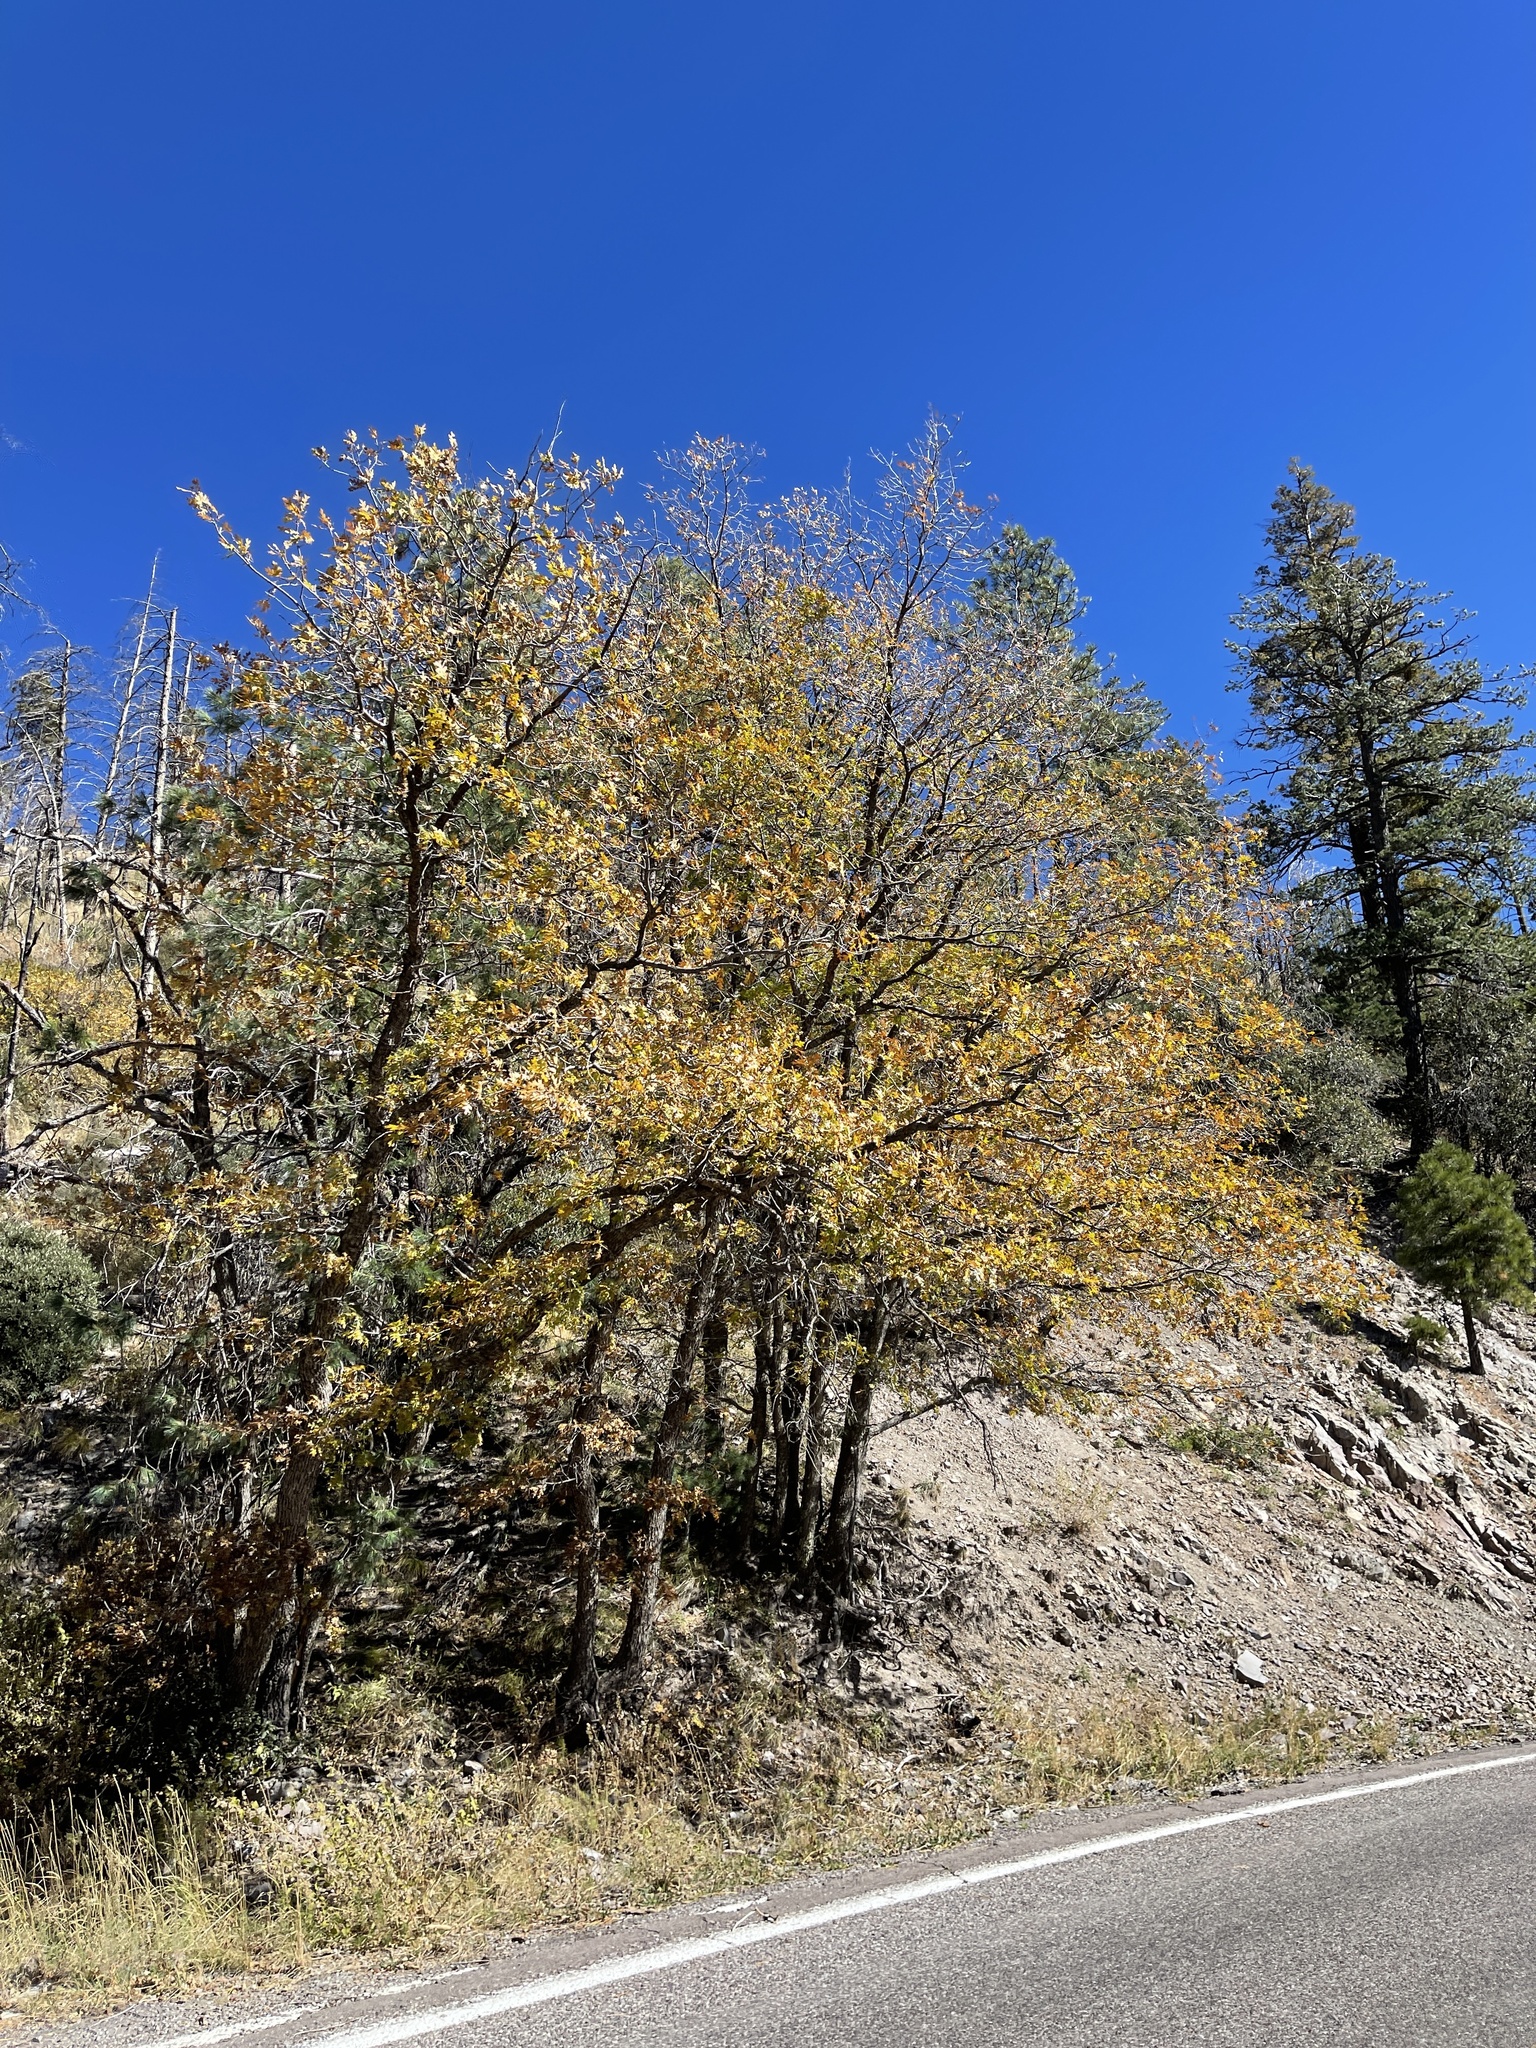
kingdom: Plantae
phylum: Tracheophyta
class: Magnoliopsida
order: Fagales
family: Fagaceae
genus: Quercus
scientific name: Quercus gambelii
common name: Gambel oak
